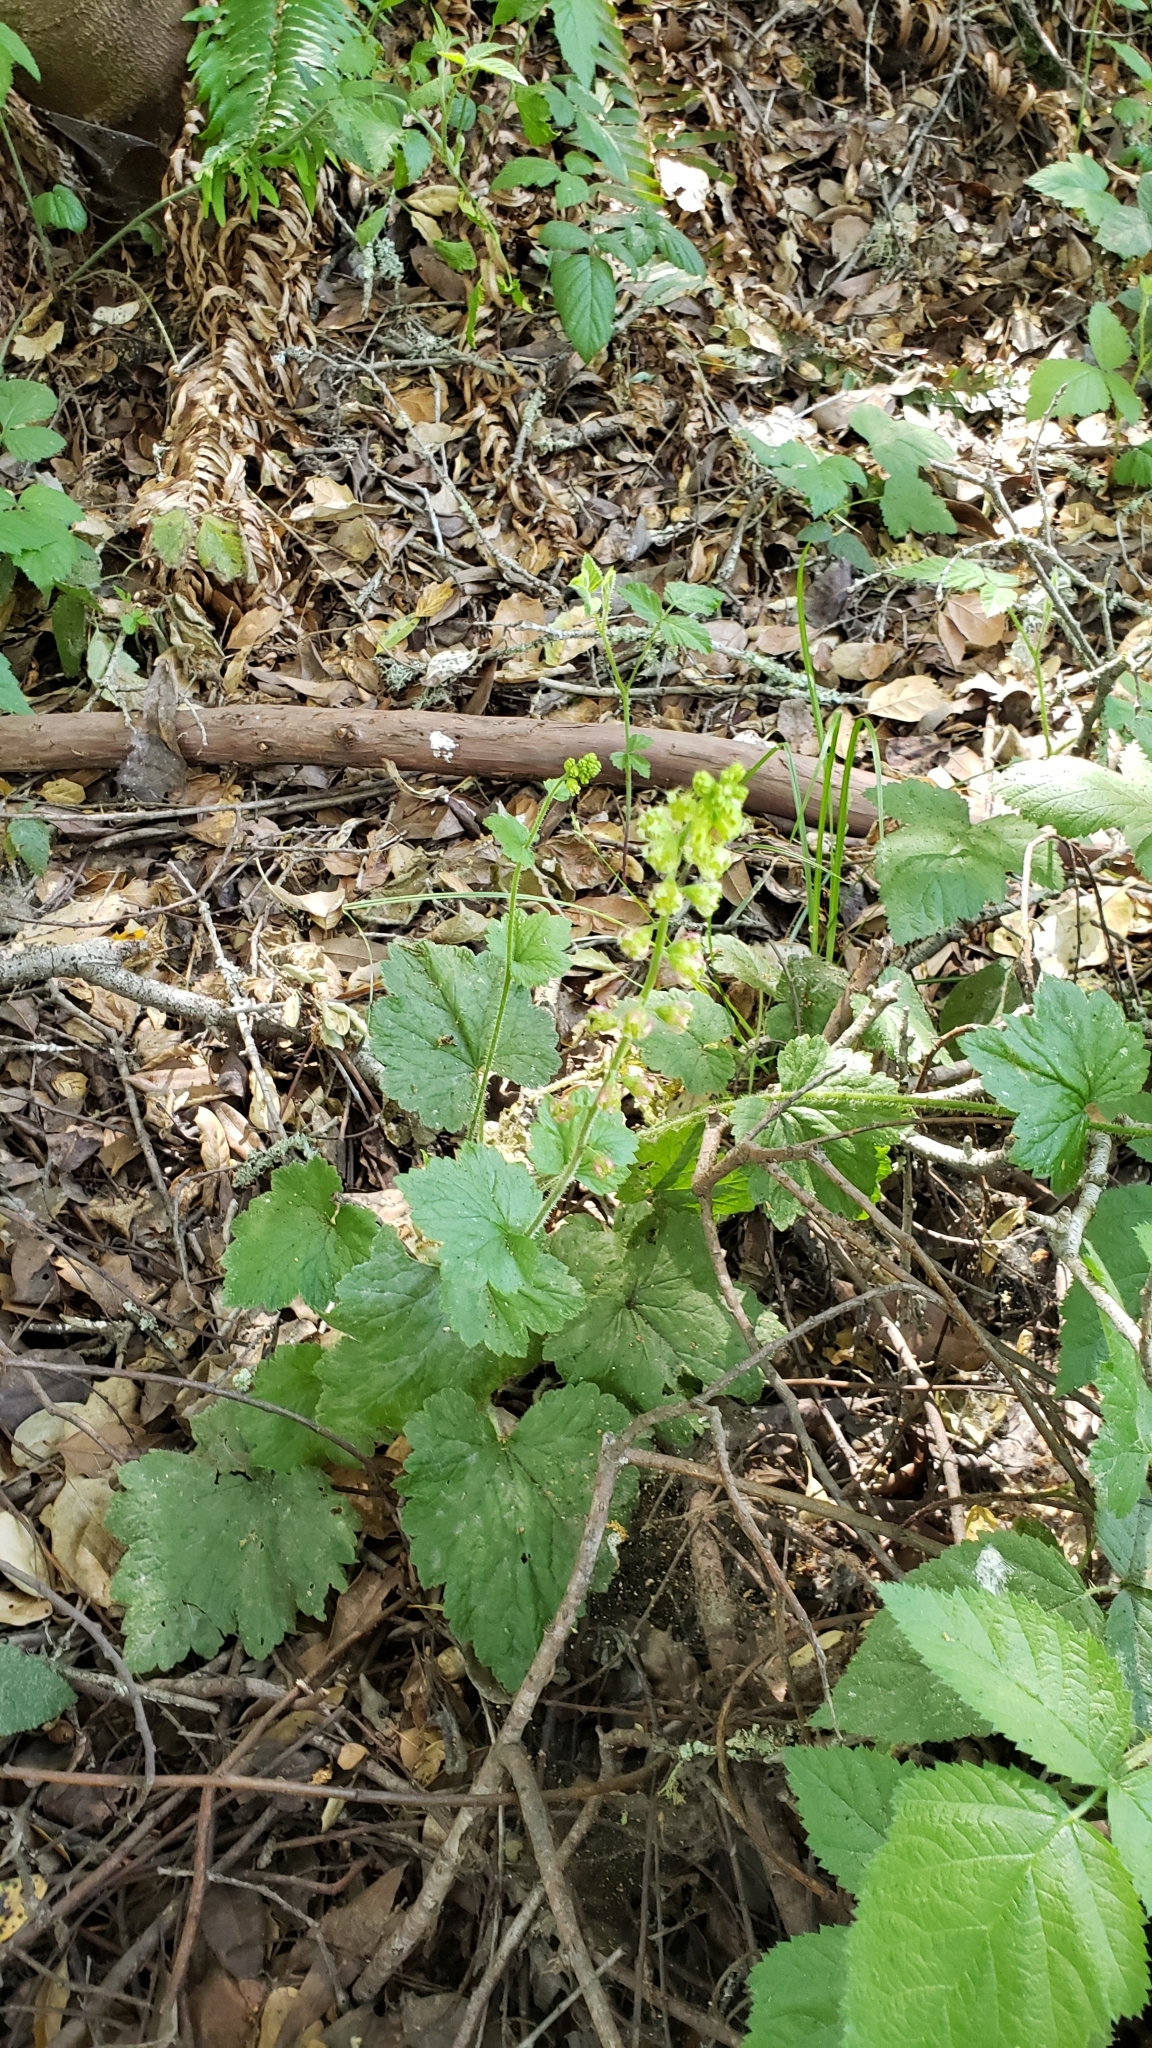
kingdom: Plantae
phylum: Tracheophyta
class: Magnoliopsida
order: Saxifragales
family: Saxifragaceae
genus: Tellima
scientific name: Tellima grandiflora
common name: Fringecups
